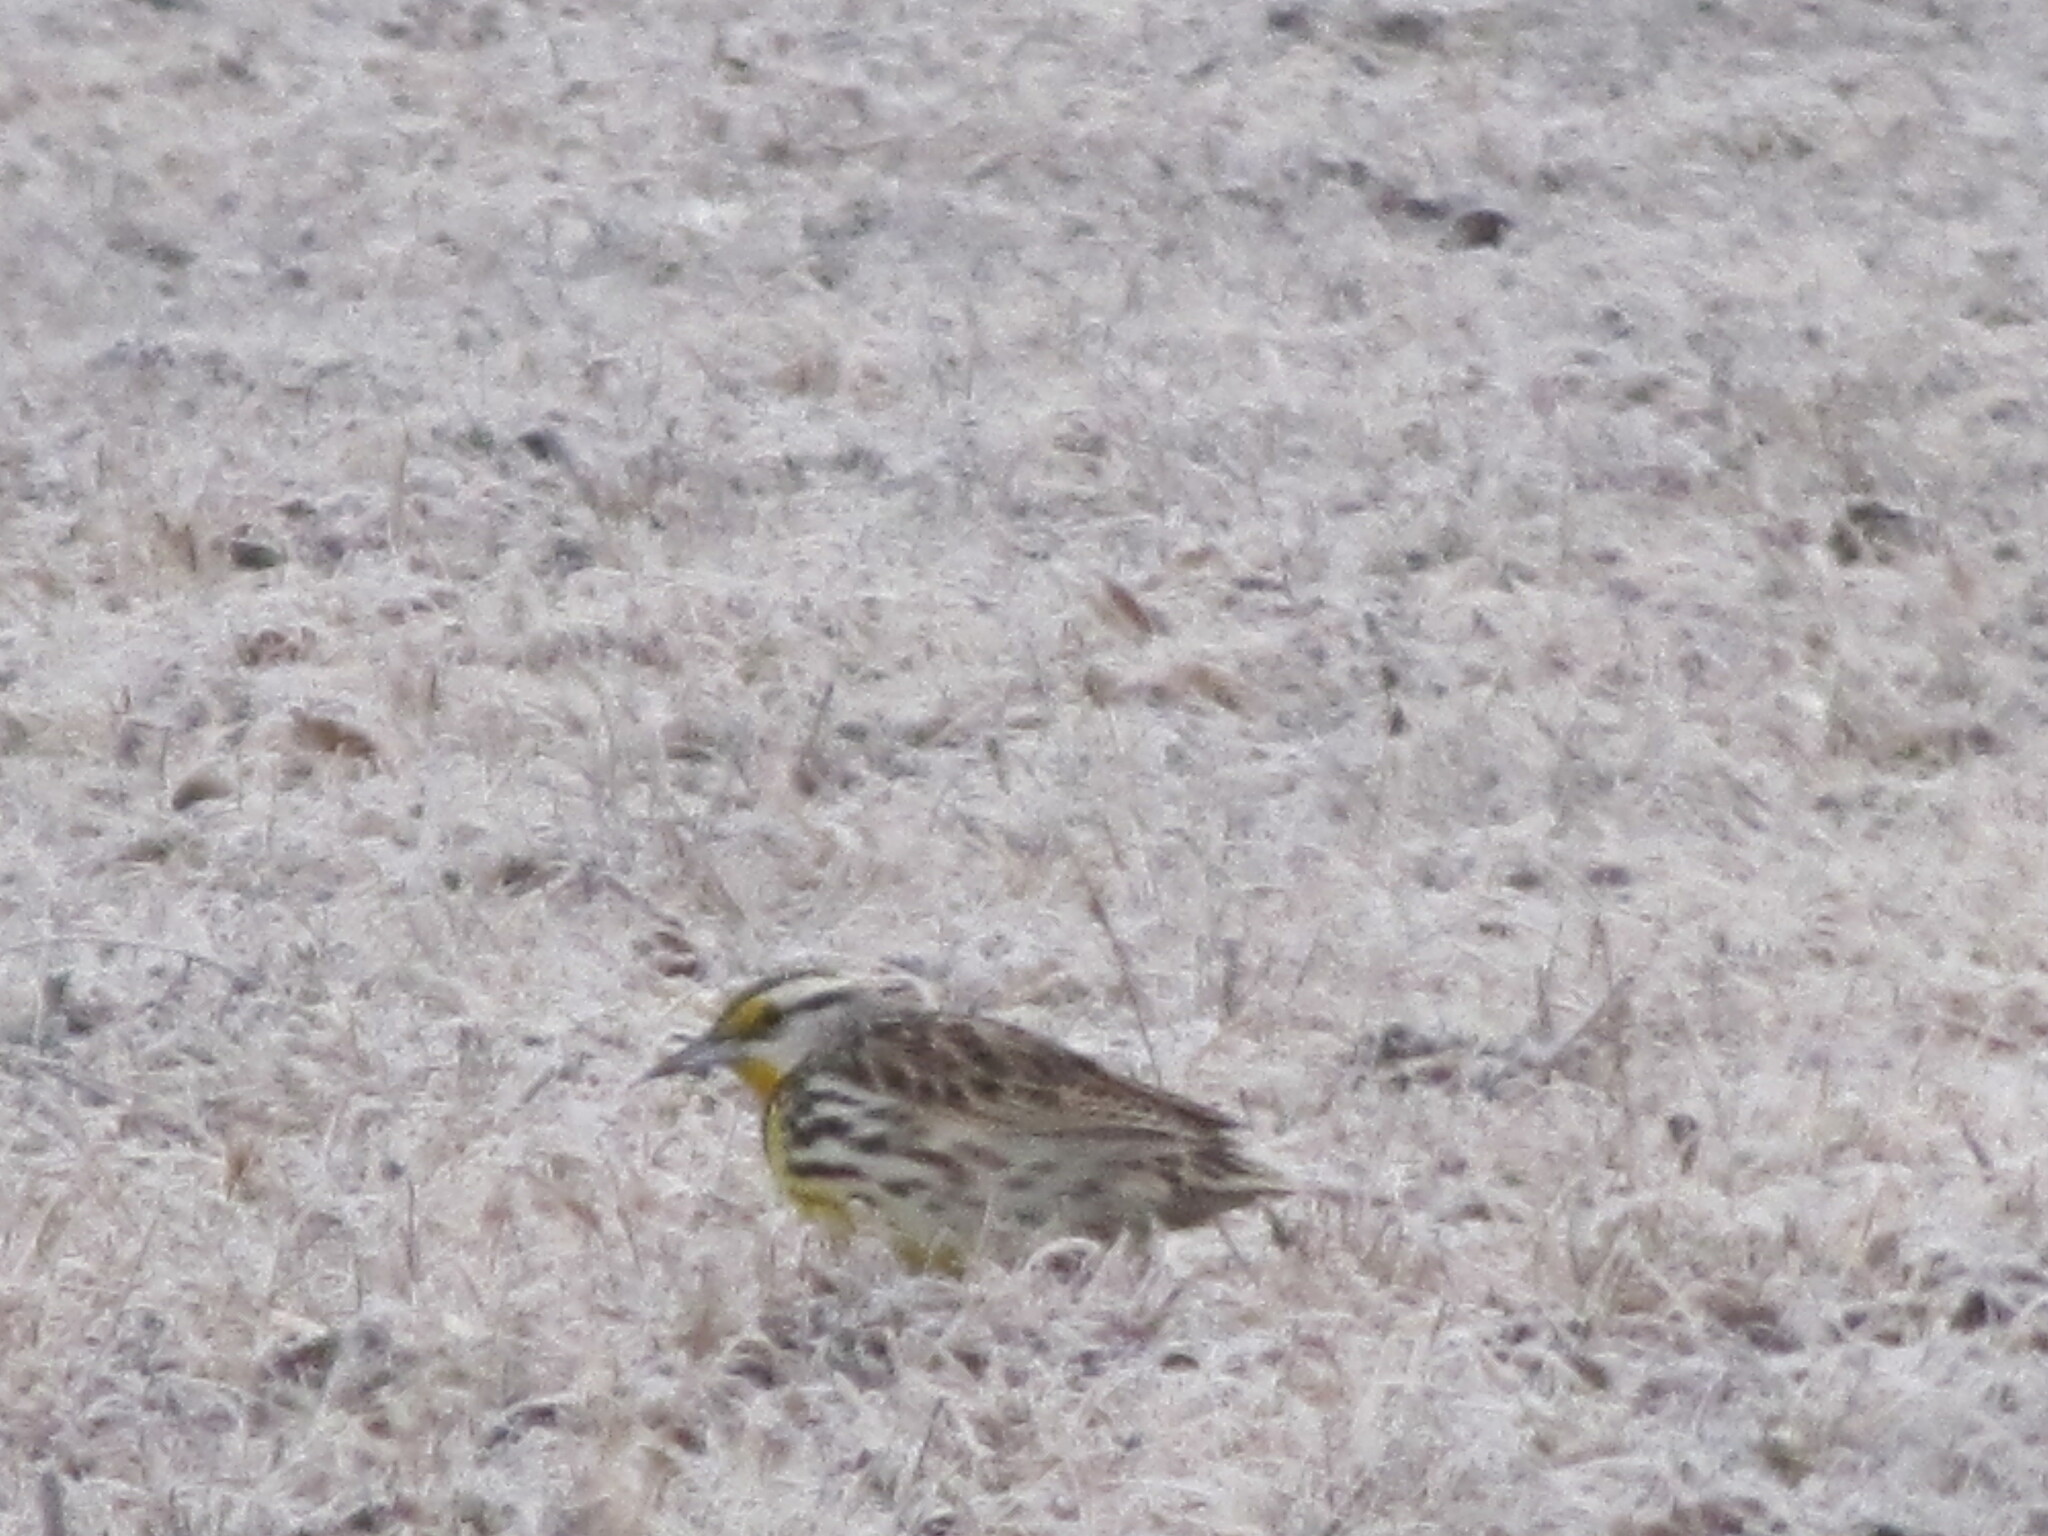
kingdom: Animalia
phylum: Chordata
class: Aves
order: Passeriformes
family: Icteridae
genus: Sturnella
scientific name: Sturnella magna
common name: Eastern meadowlark
